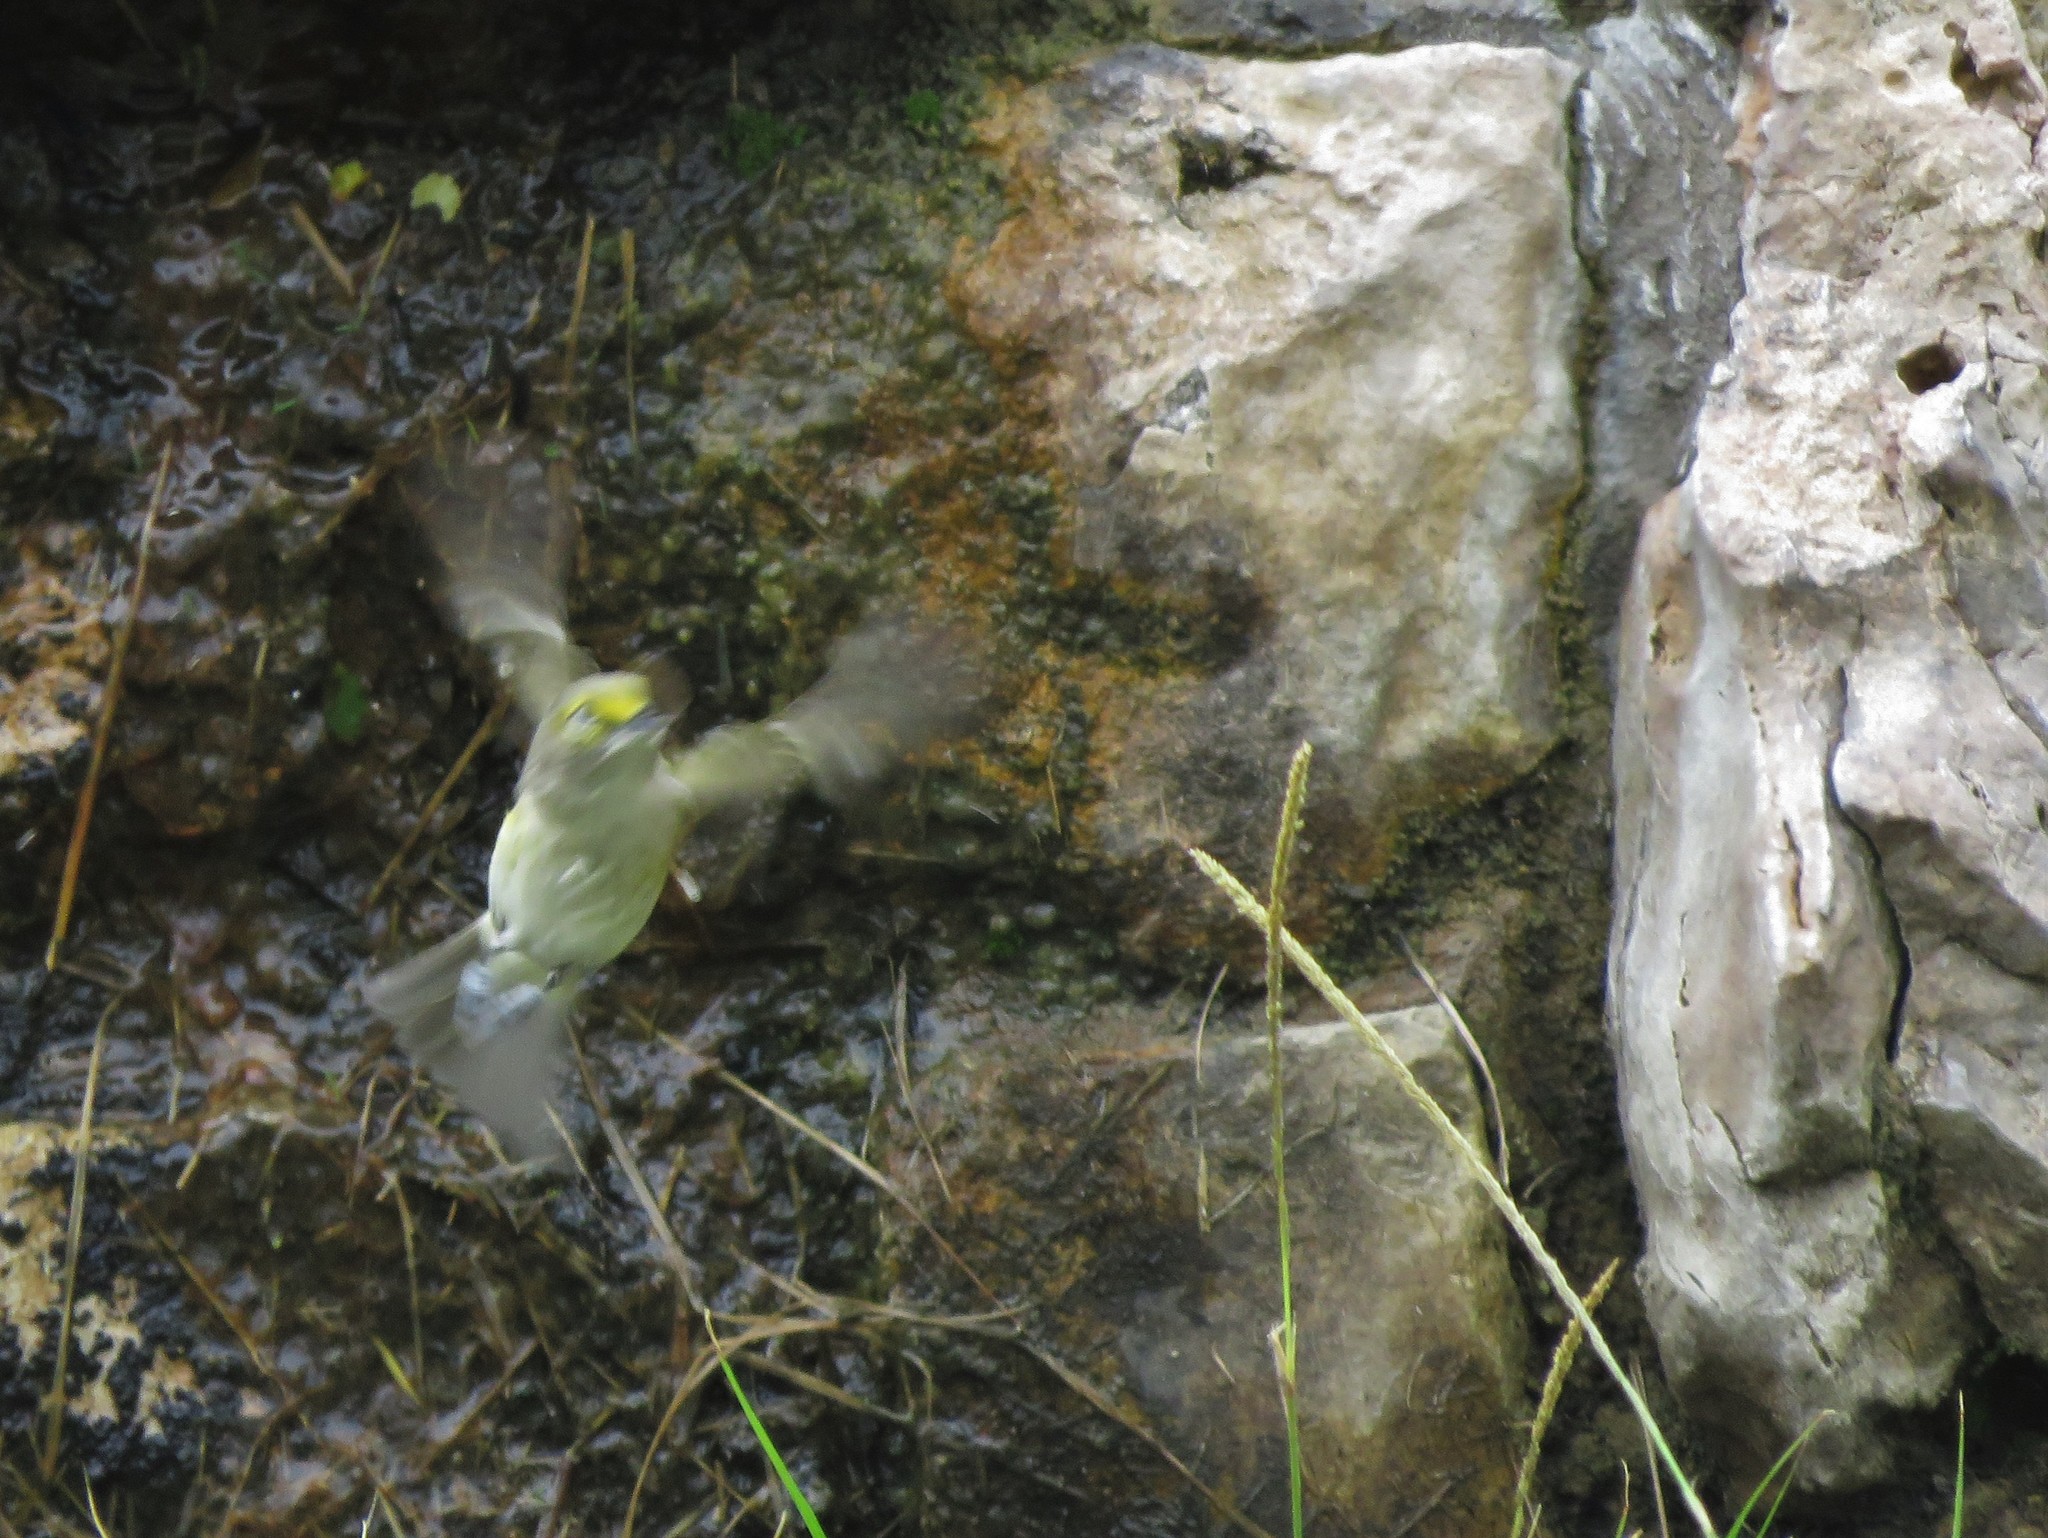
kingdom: Animalia
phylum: Chordata
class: Aves
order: Passeriformes
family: Vireonidae
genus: Vireo
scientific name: Vireo griseus
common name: White-eyed vireo
